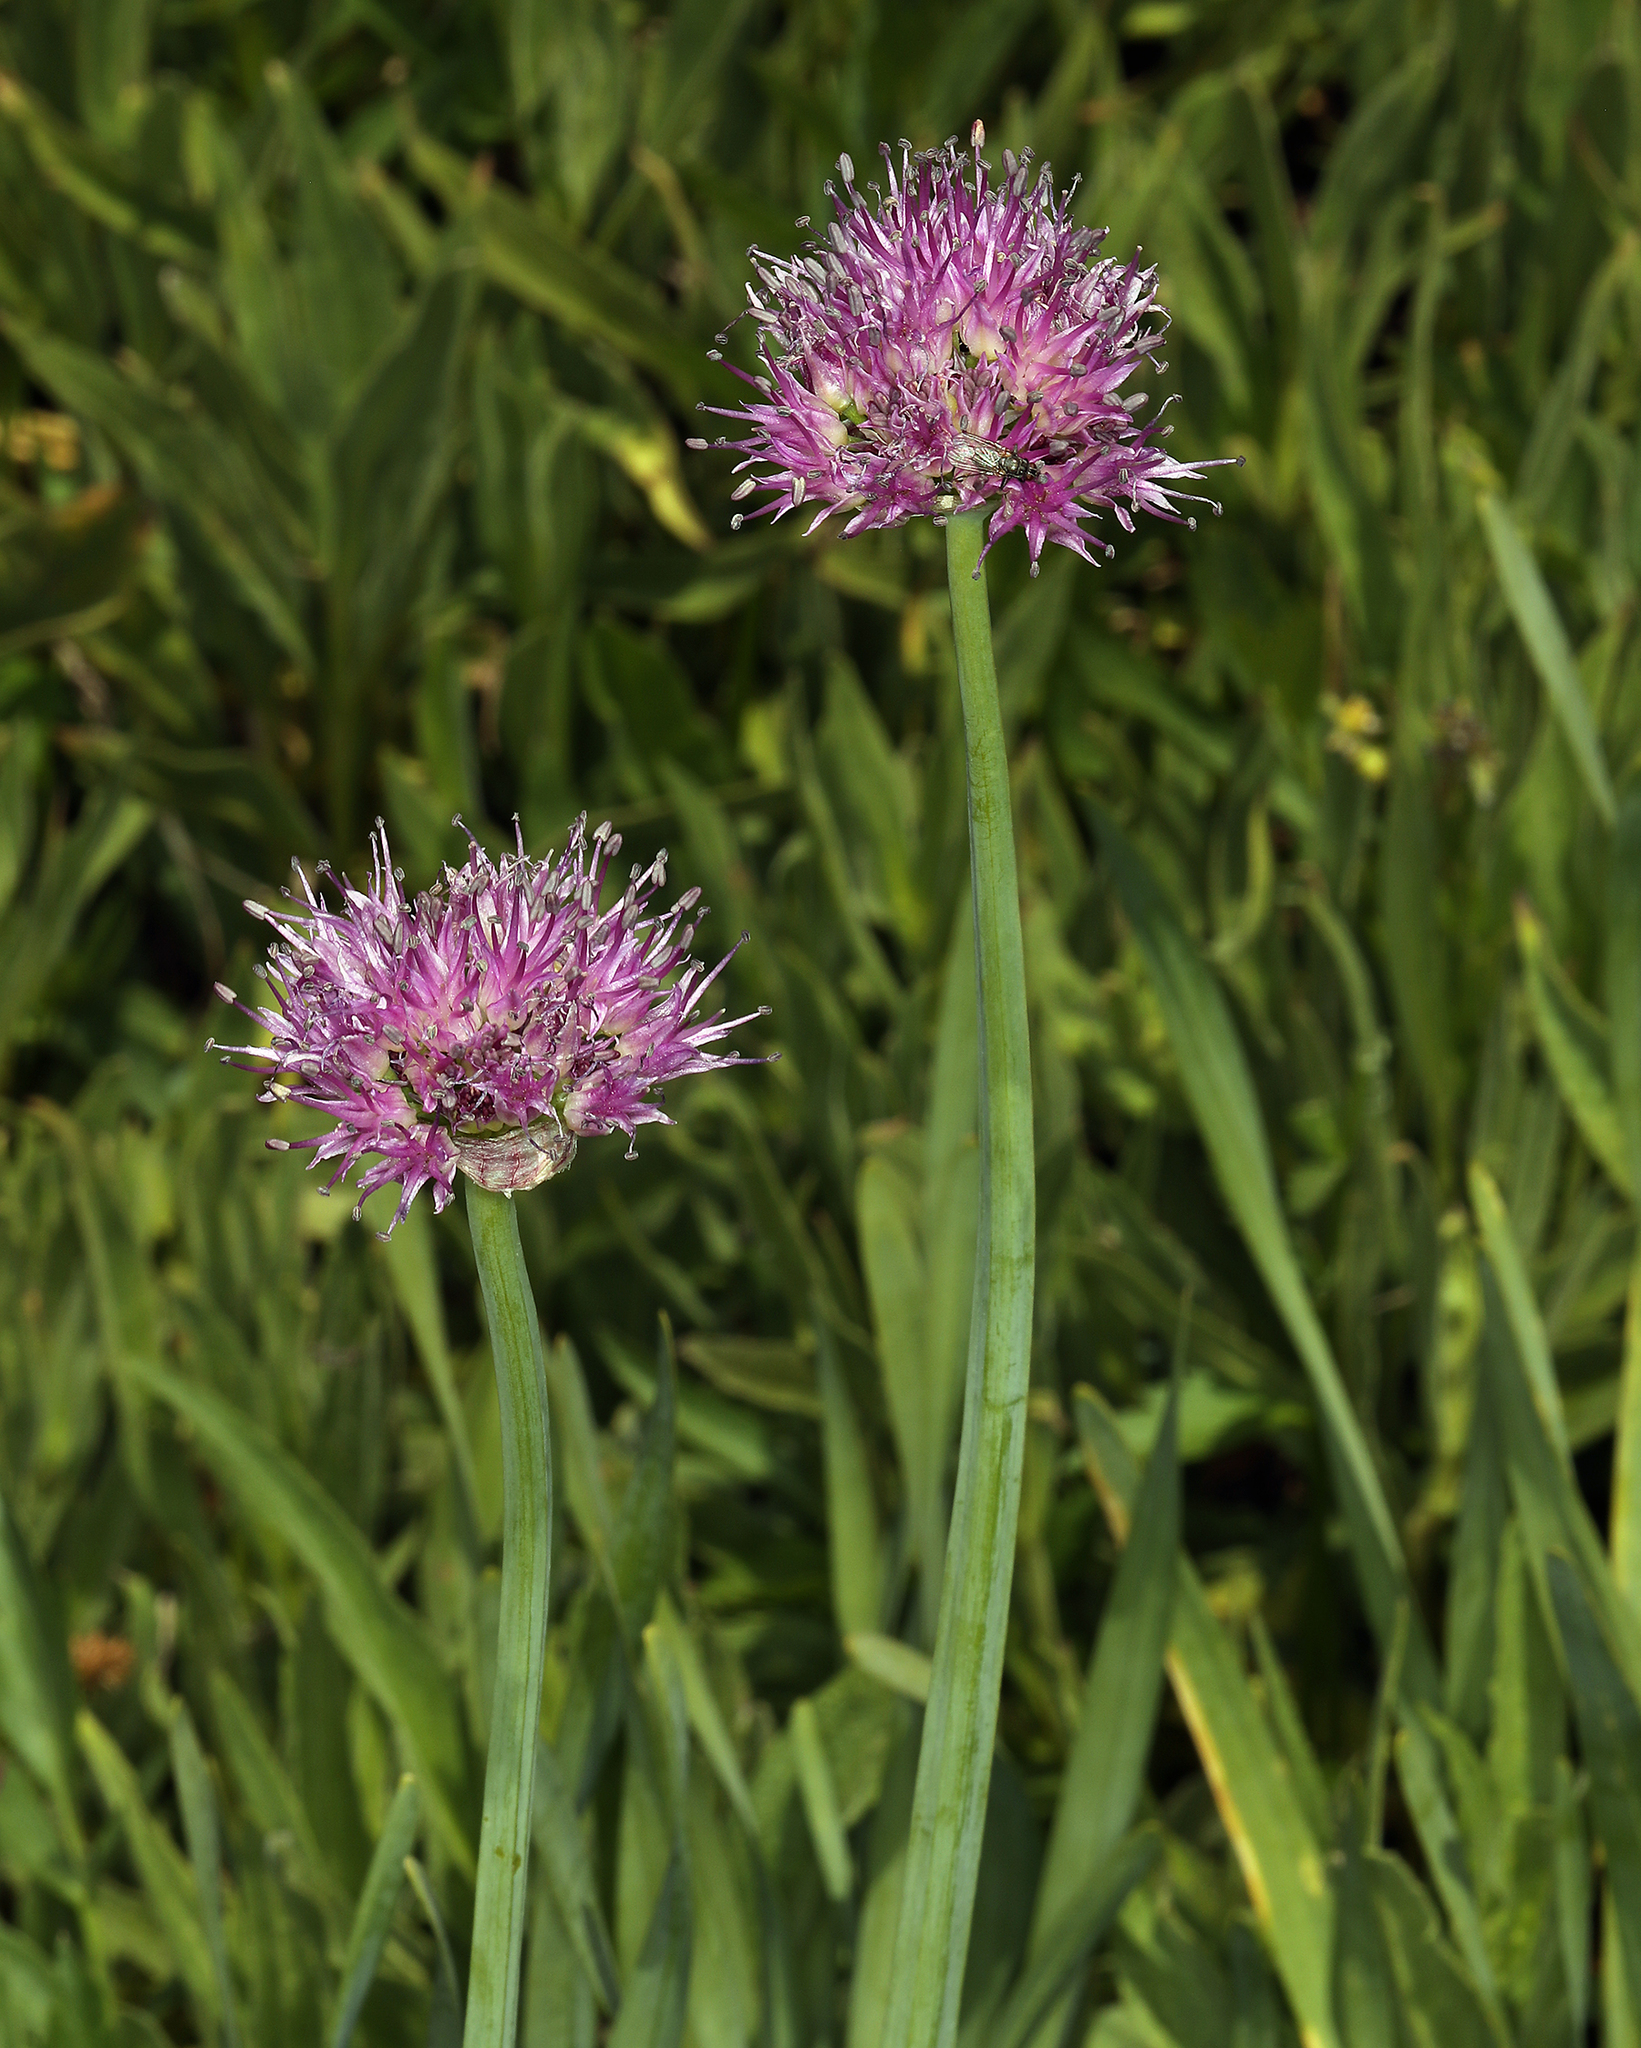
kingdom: Plantae
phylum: Tracheophyta
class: Liliopsida
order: Asparagales
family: Amaryllidaceae
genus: Allium
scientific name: Allium validum
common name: Pacific mountain onion
